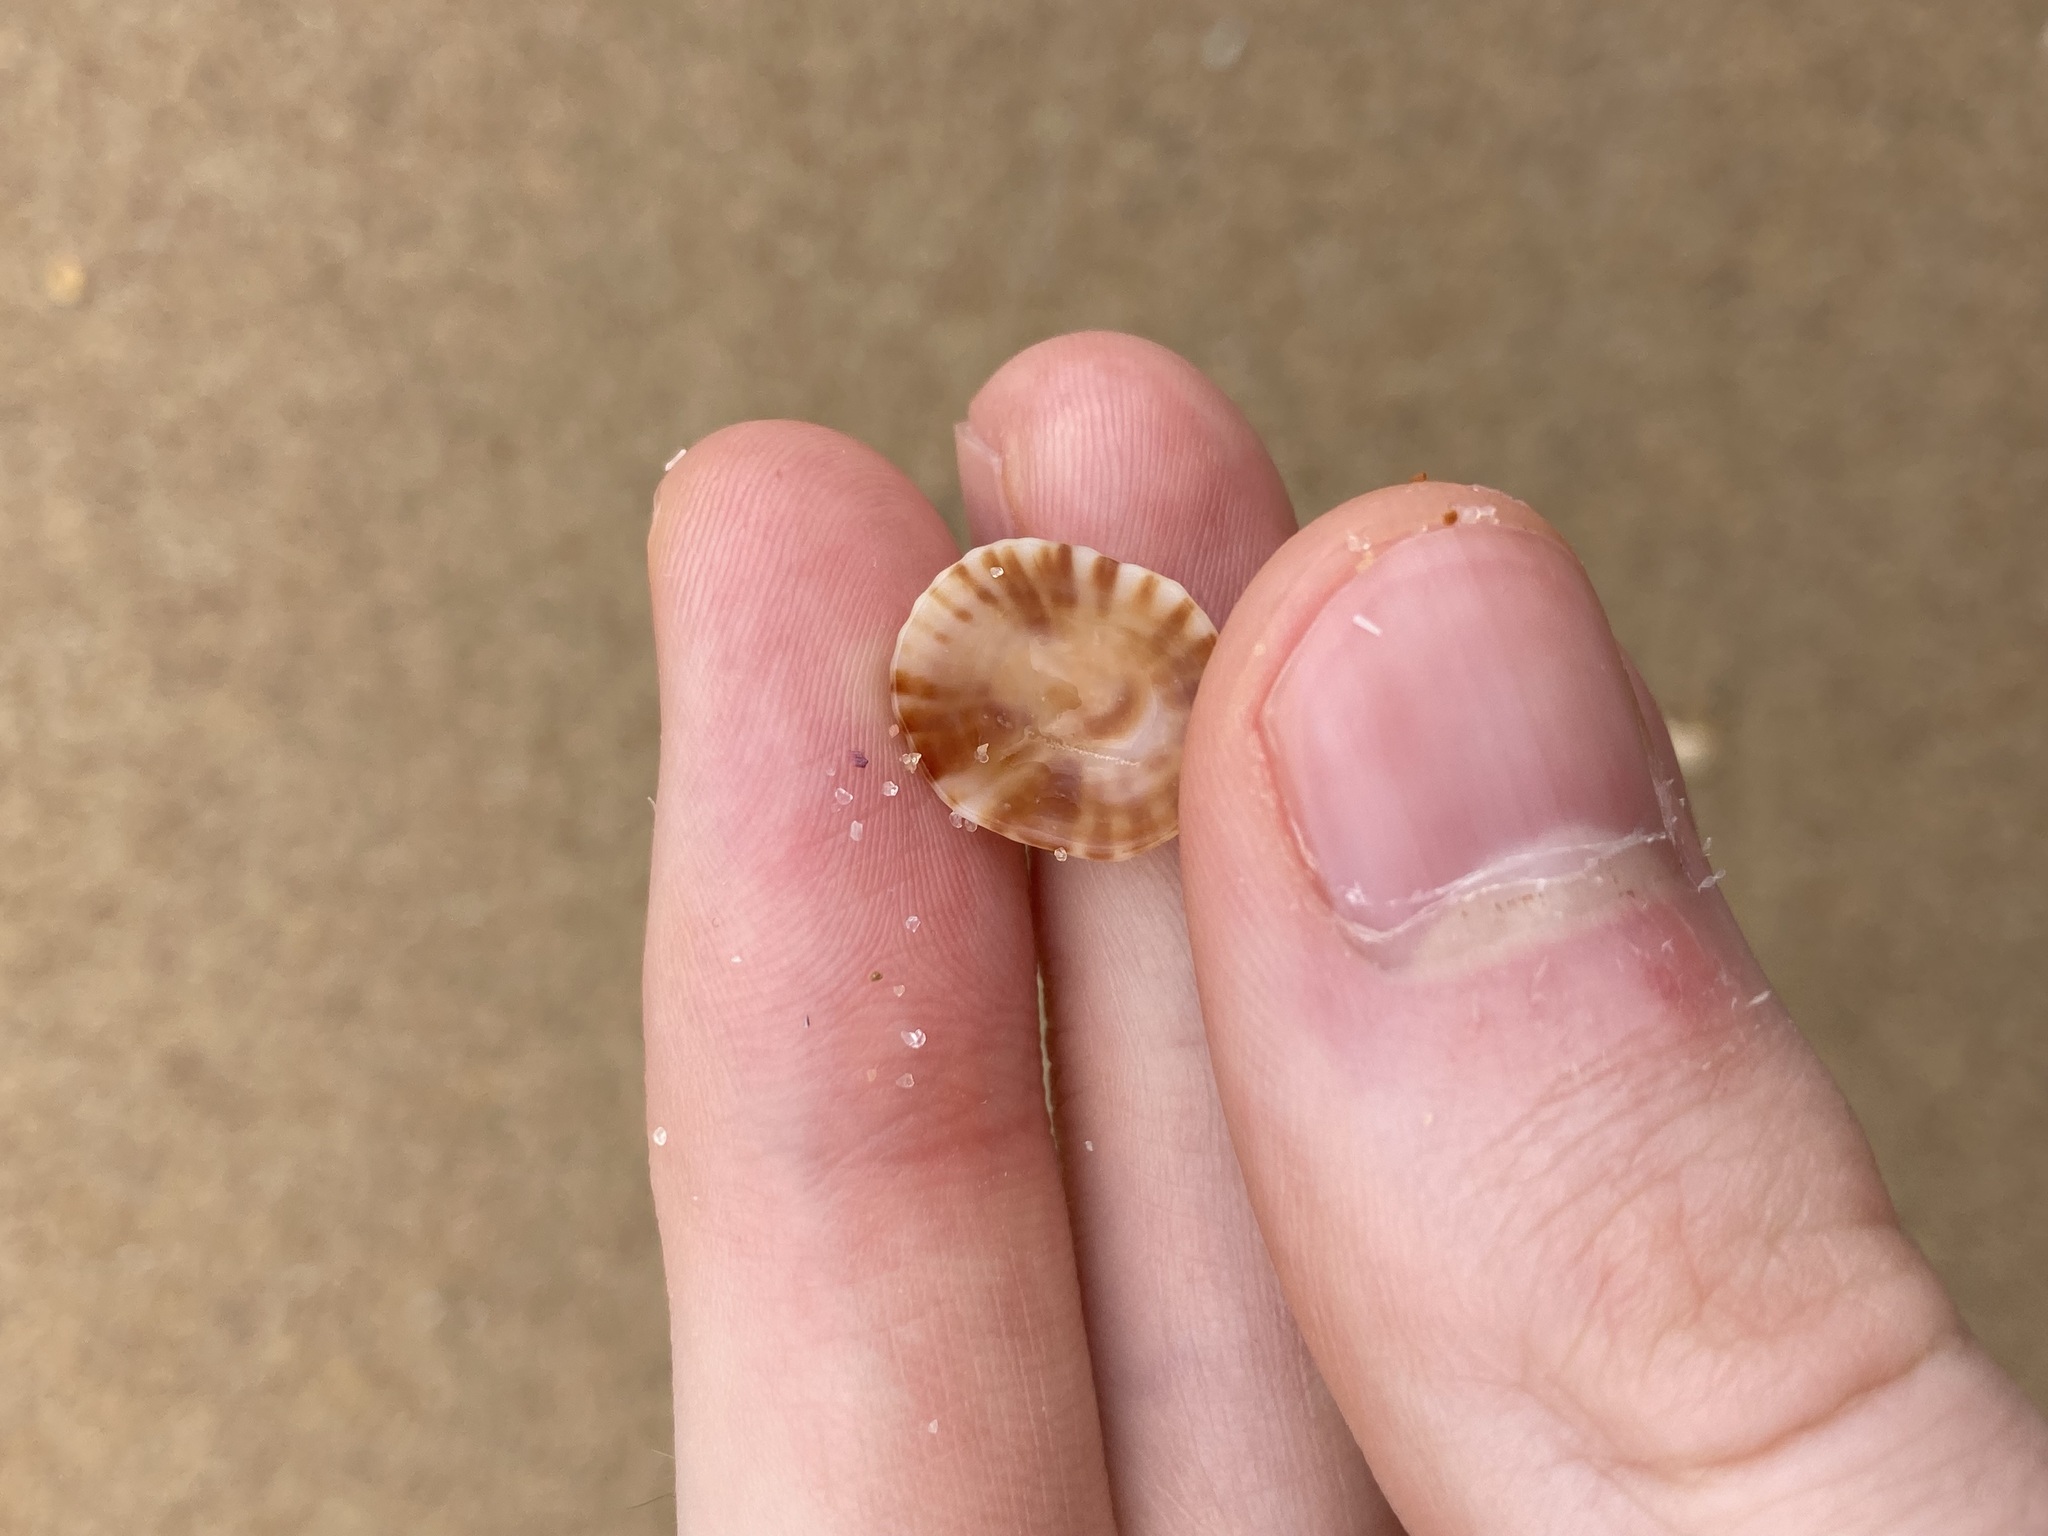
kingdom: Animalia
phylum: Mollusca
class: Gastropoda
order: Siphonariida
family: Siphonariidae
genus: Siphonaria
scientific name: Siphonaria denticulata
